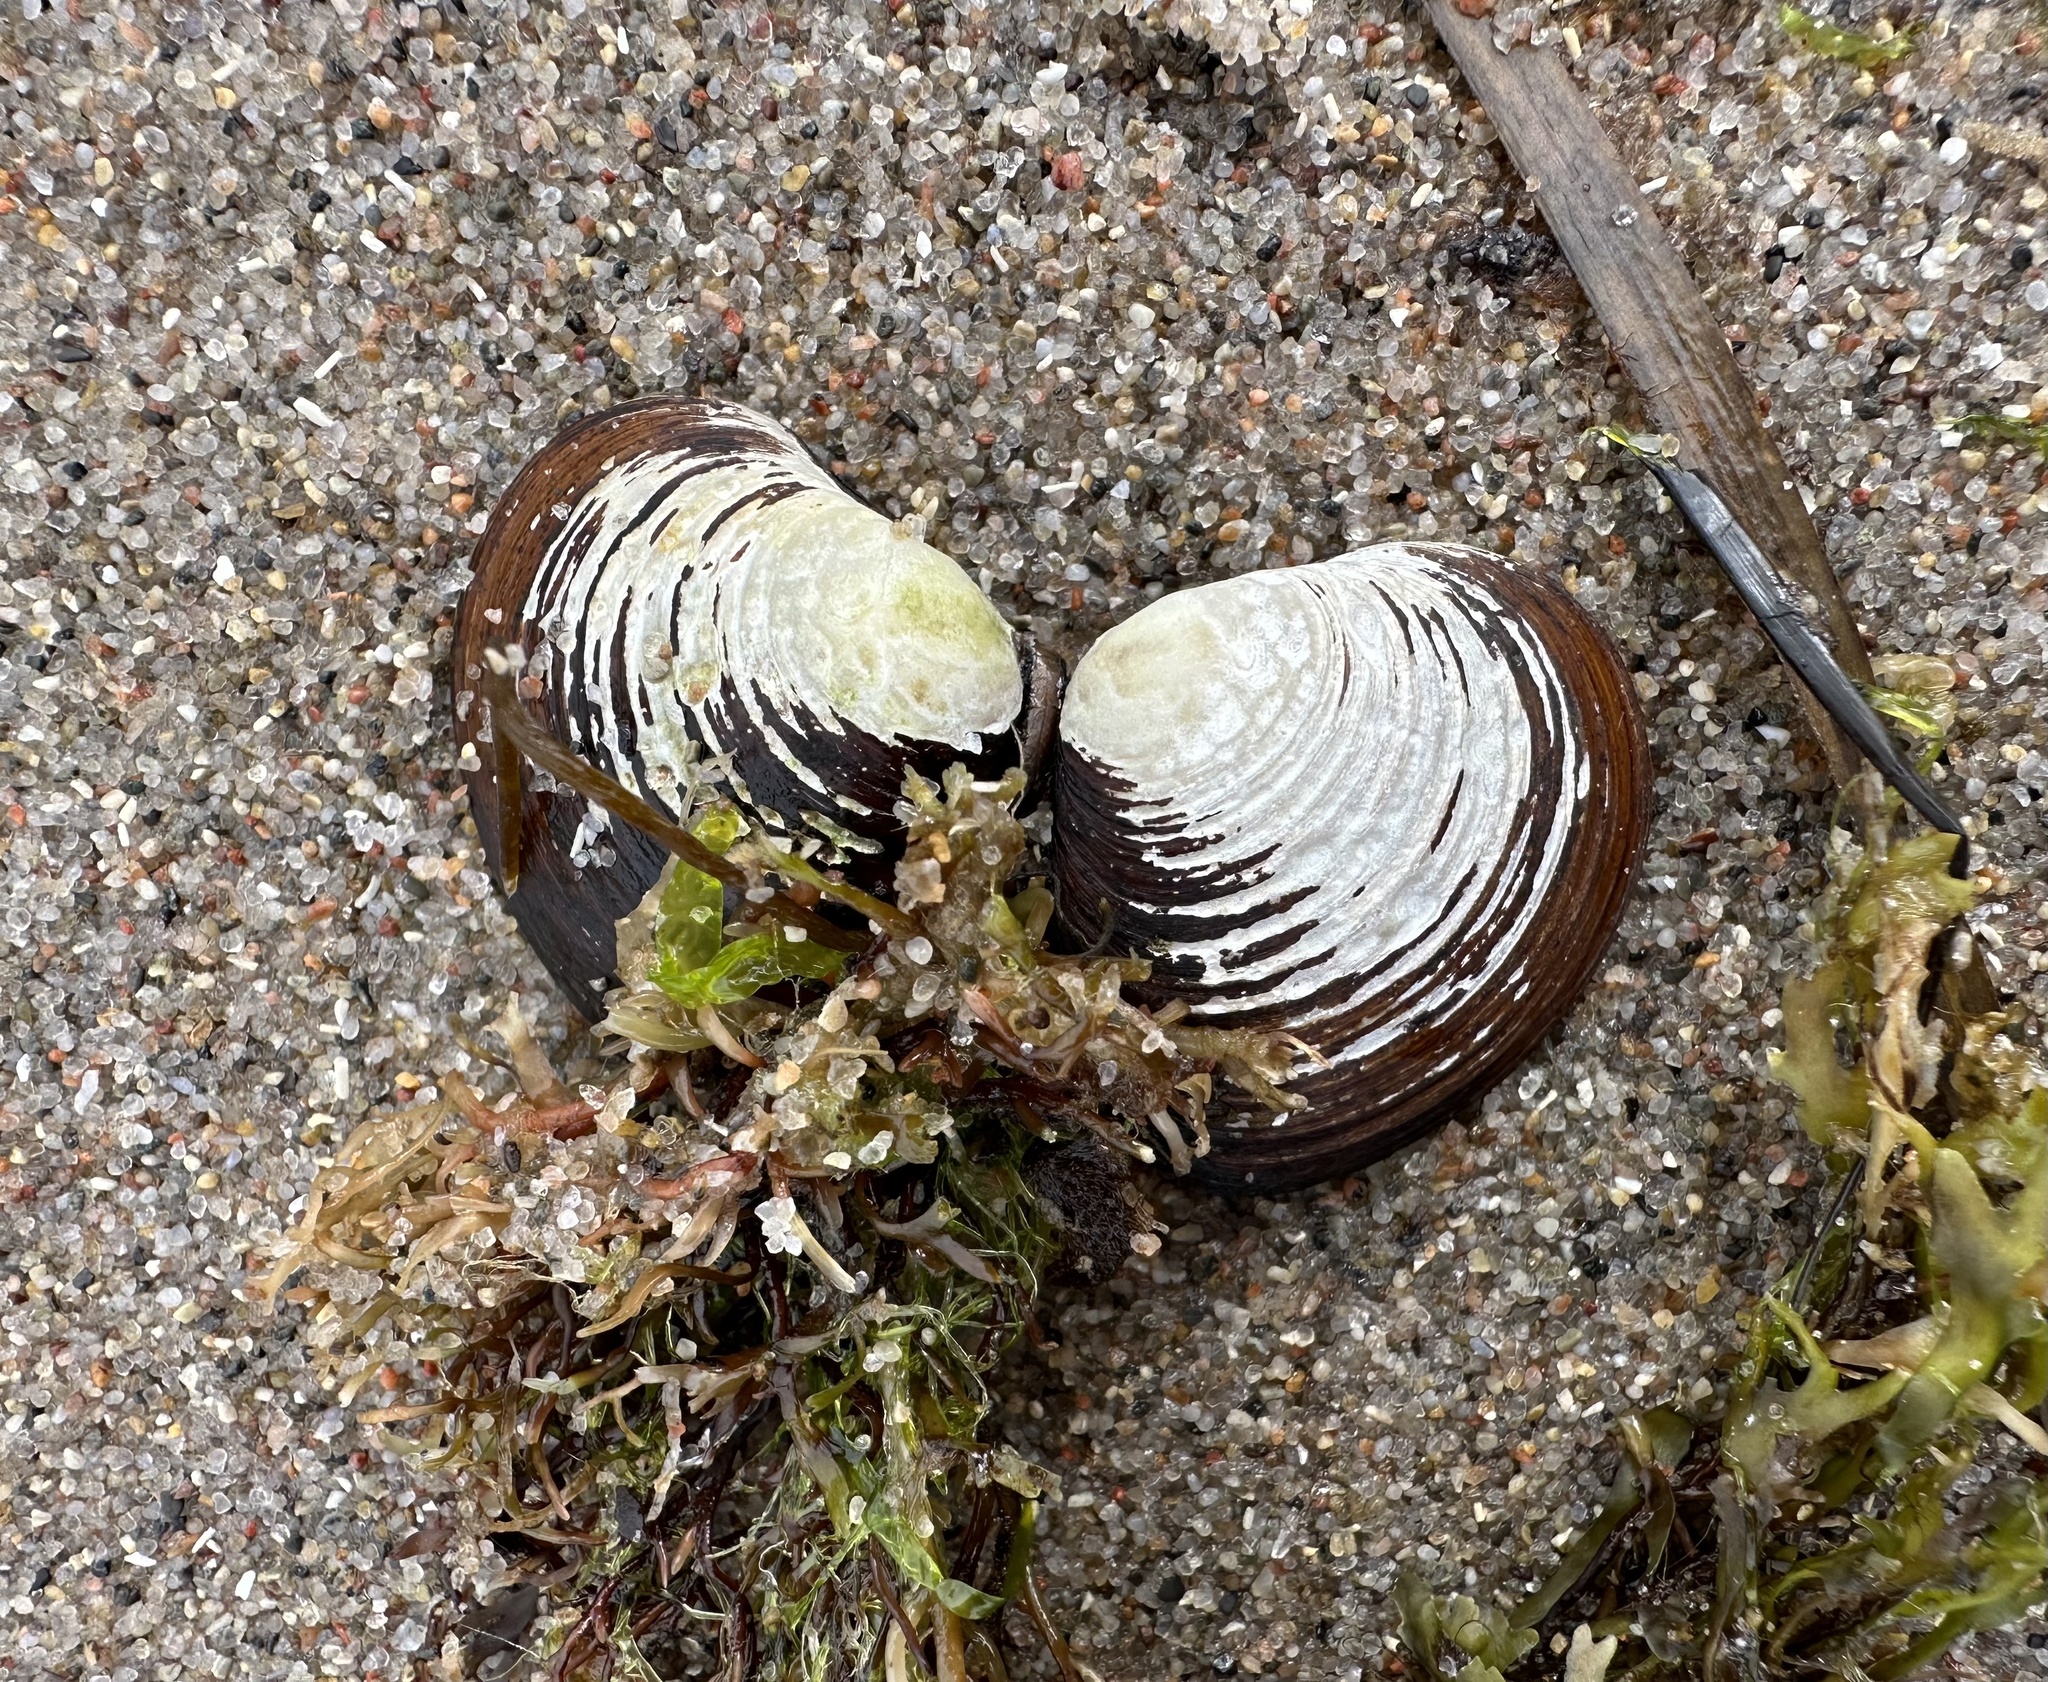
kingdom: Animalia
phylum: Mollusca
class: Bivalvia
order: Carditida
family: Astartidae
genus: Astarte
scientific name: Astarte borealis
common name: Boreal tridonta
